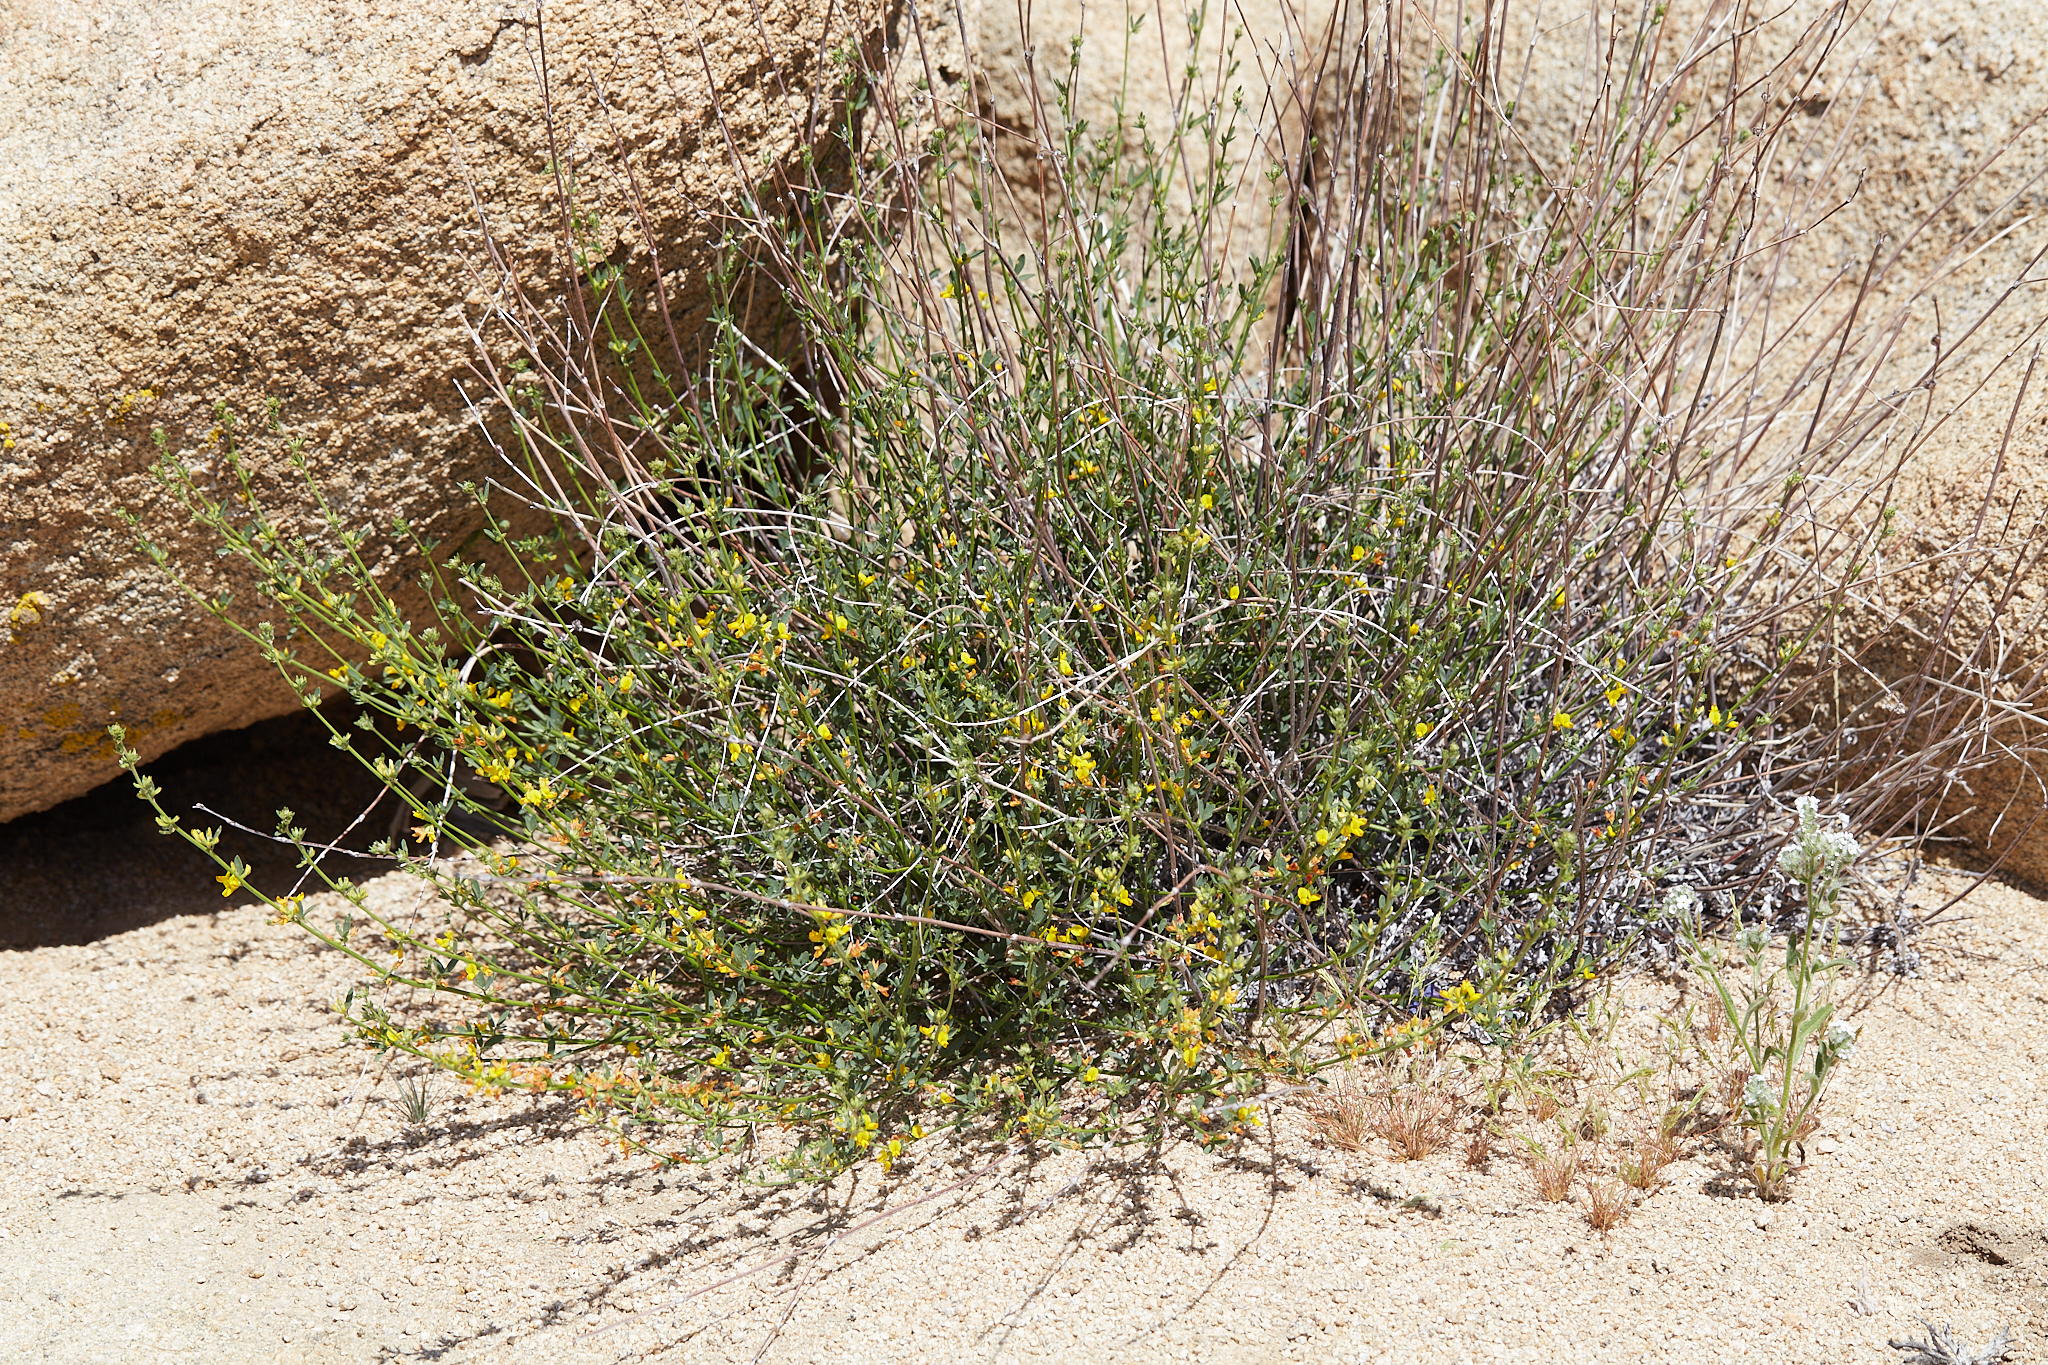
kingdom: Plantae
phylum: Tracheophyta
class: Magnoliopsida
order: Fabales
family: Fabaceae
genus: Acmispon
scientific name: Acmispon glaber
